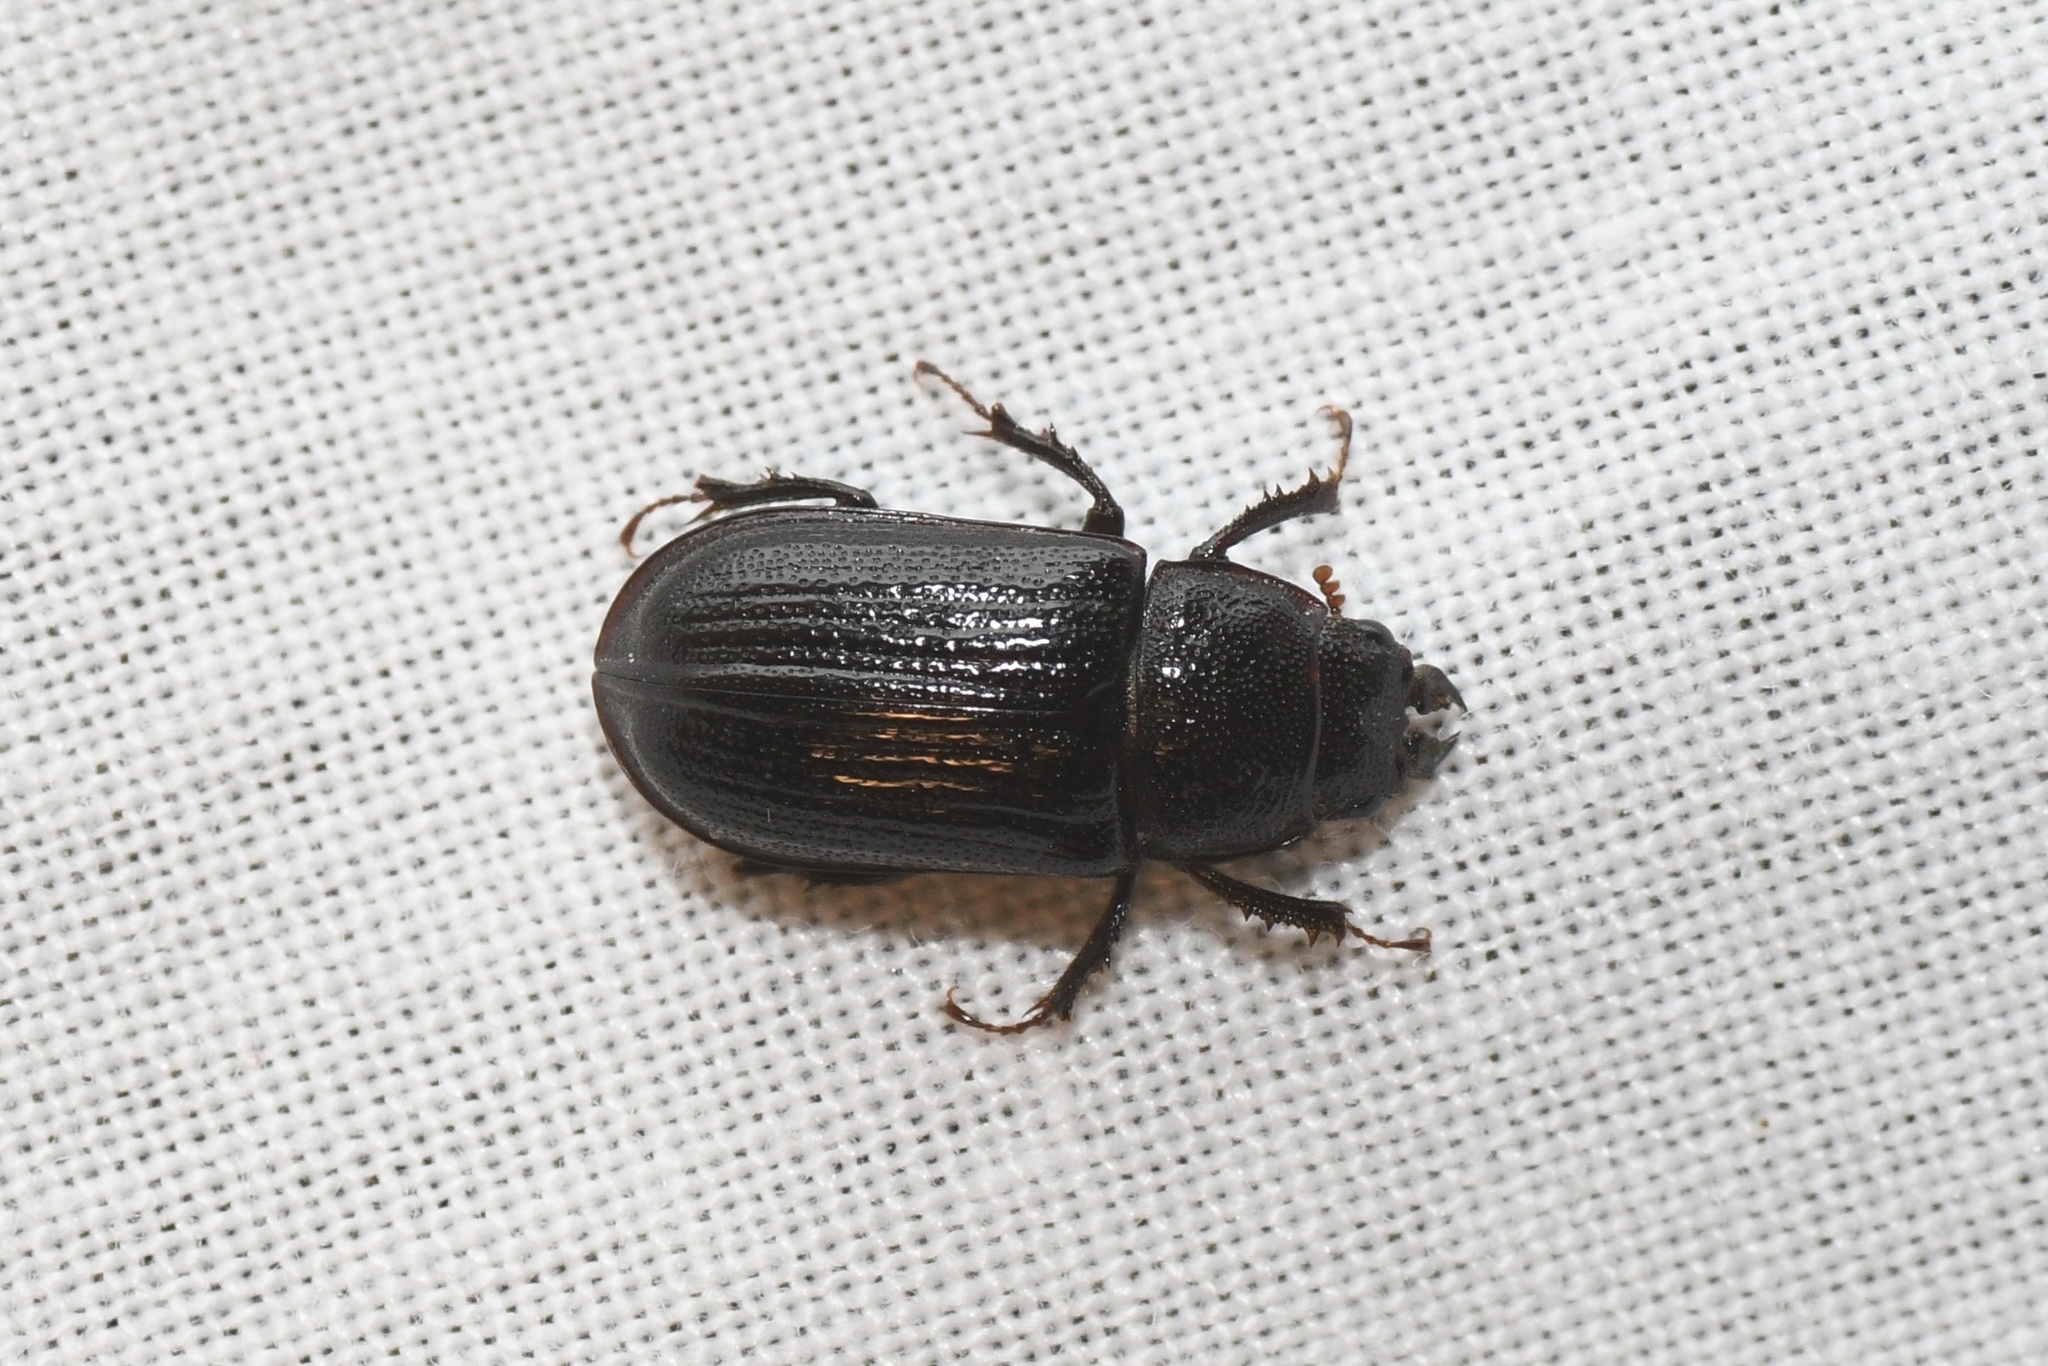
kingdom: Animalia
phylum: Arthropoda
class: Insecta
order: Coleoptera
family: Lucanidae
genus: Ceruchus
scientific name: Ceruchus piceus
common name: Red-rot decay stag beetle
